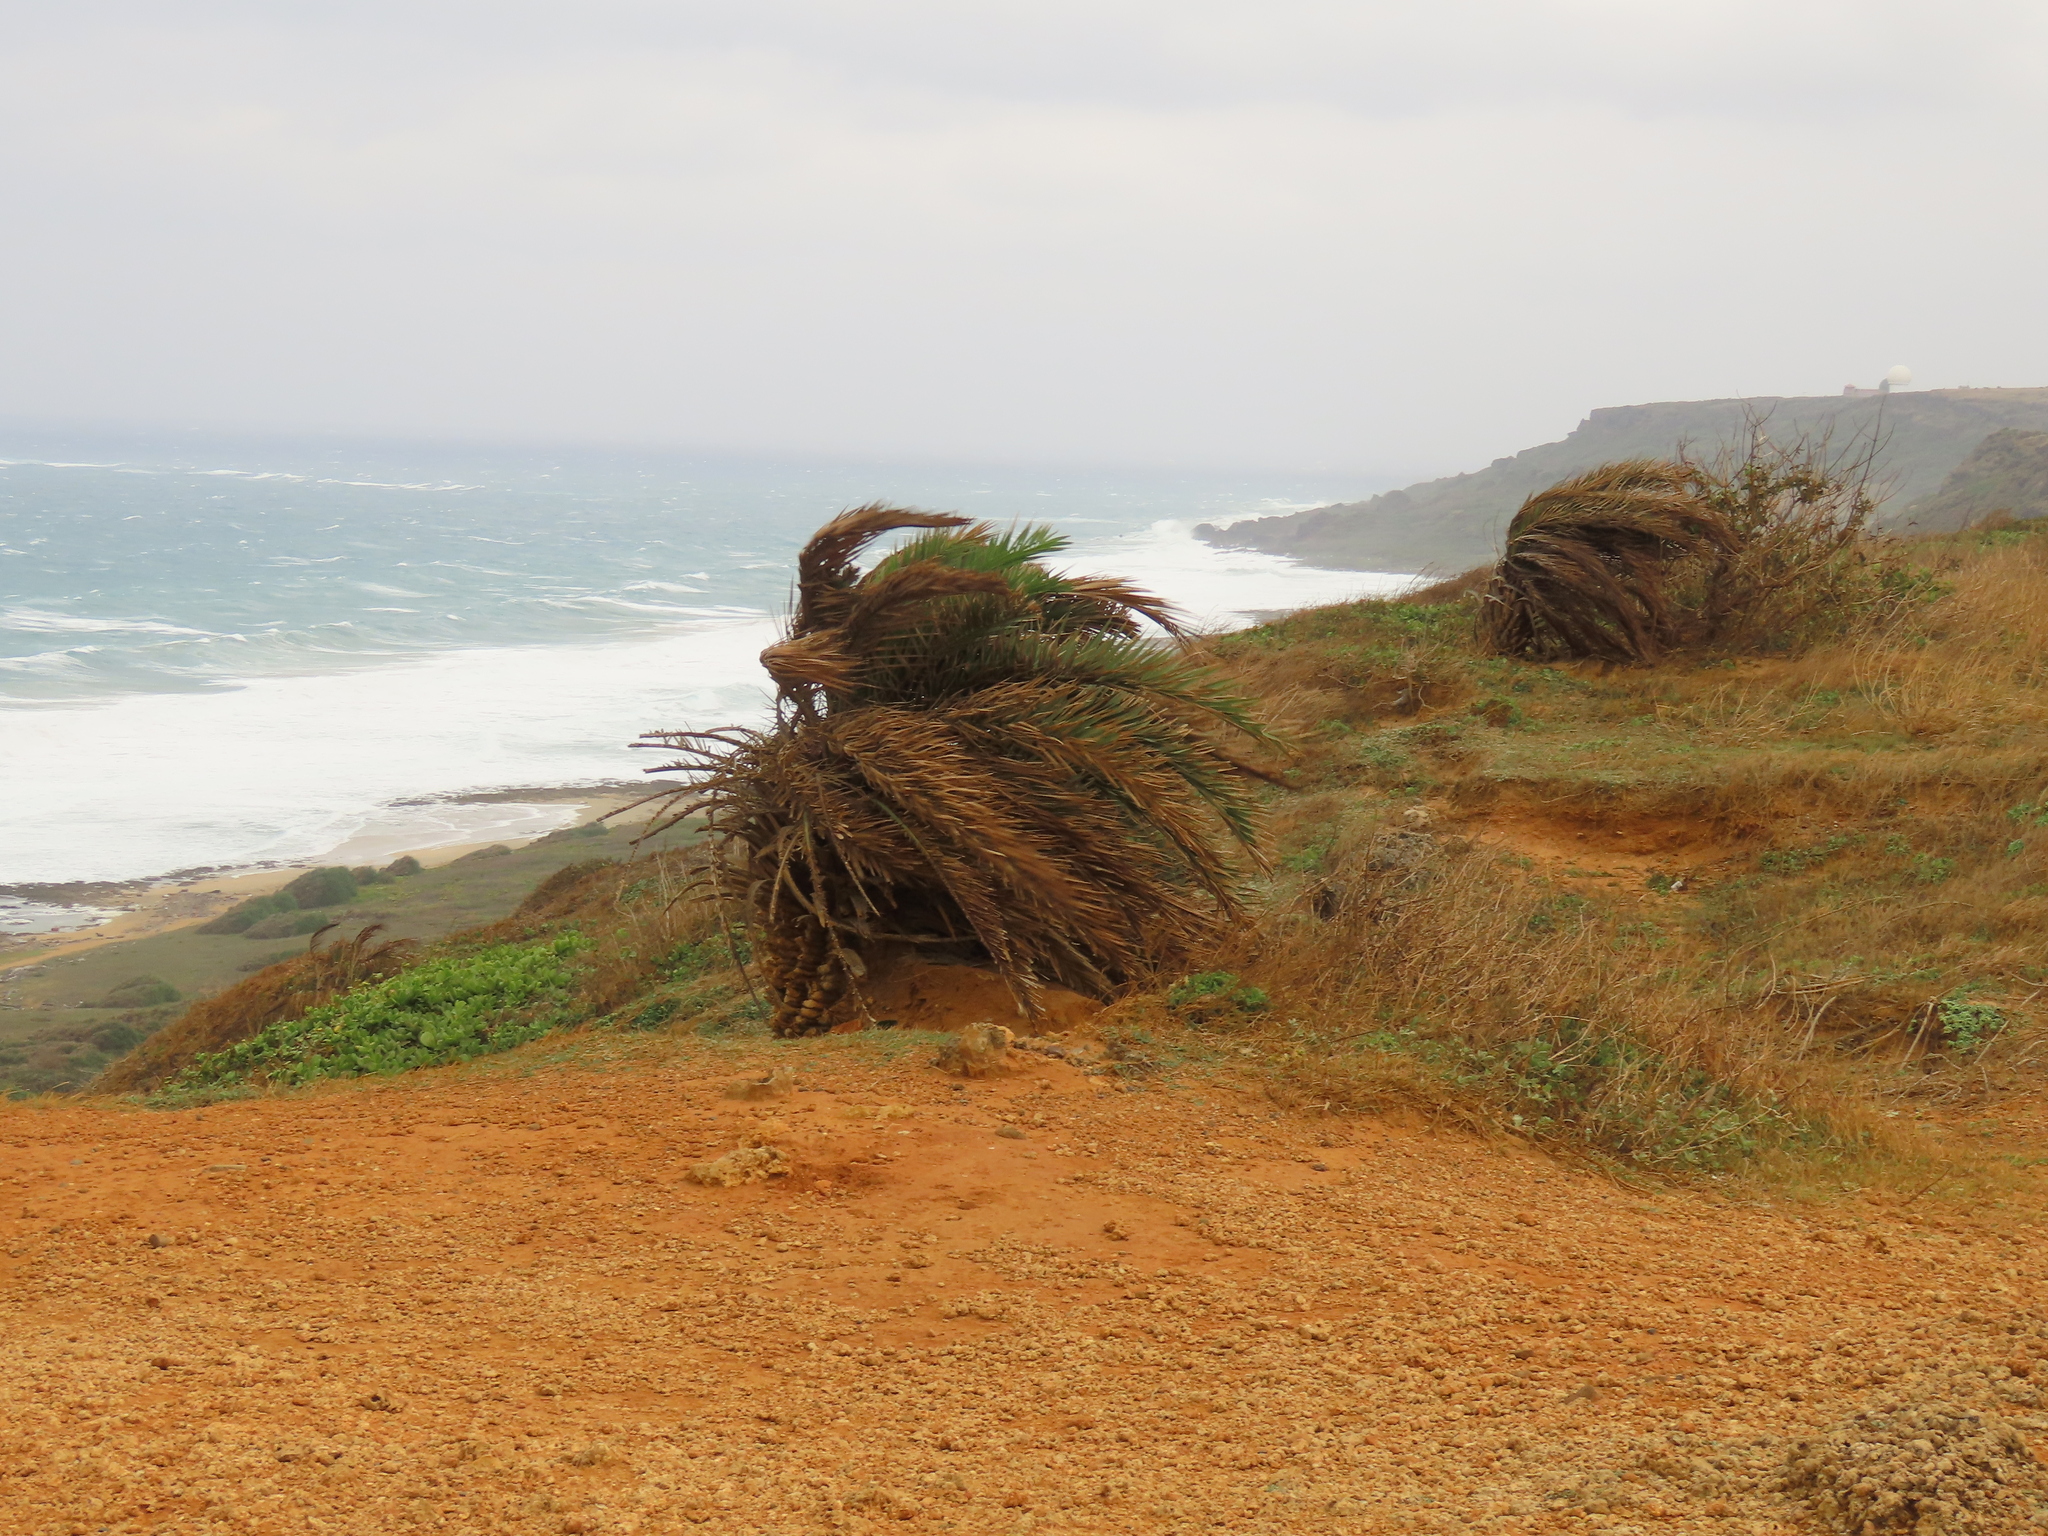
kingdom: Plantae
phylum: Tracheophyta
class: Liliopsida
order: Arecales
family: Arecaceae
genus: Phoenix
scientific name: Phoenix loureiroi
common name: Loureiro's palm
